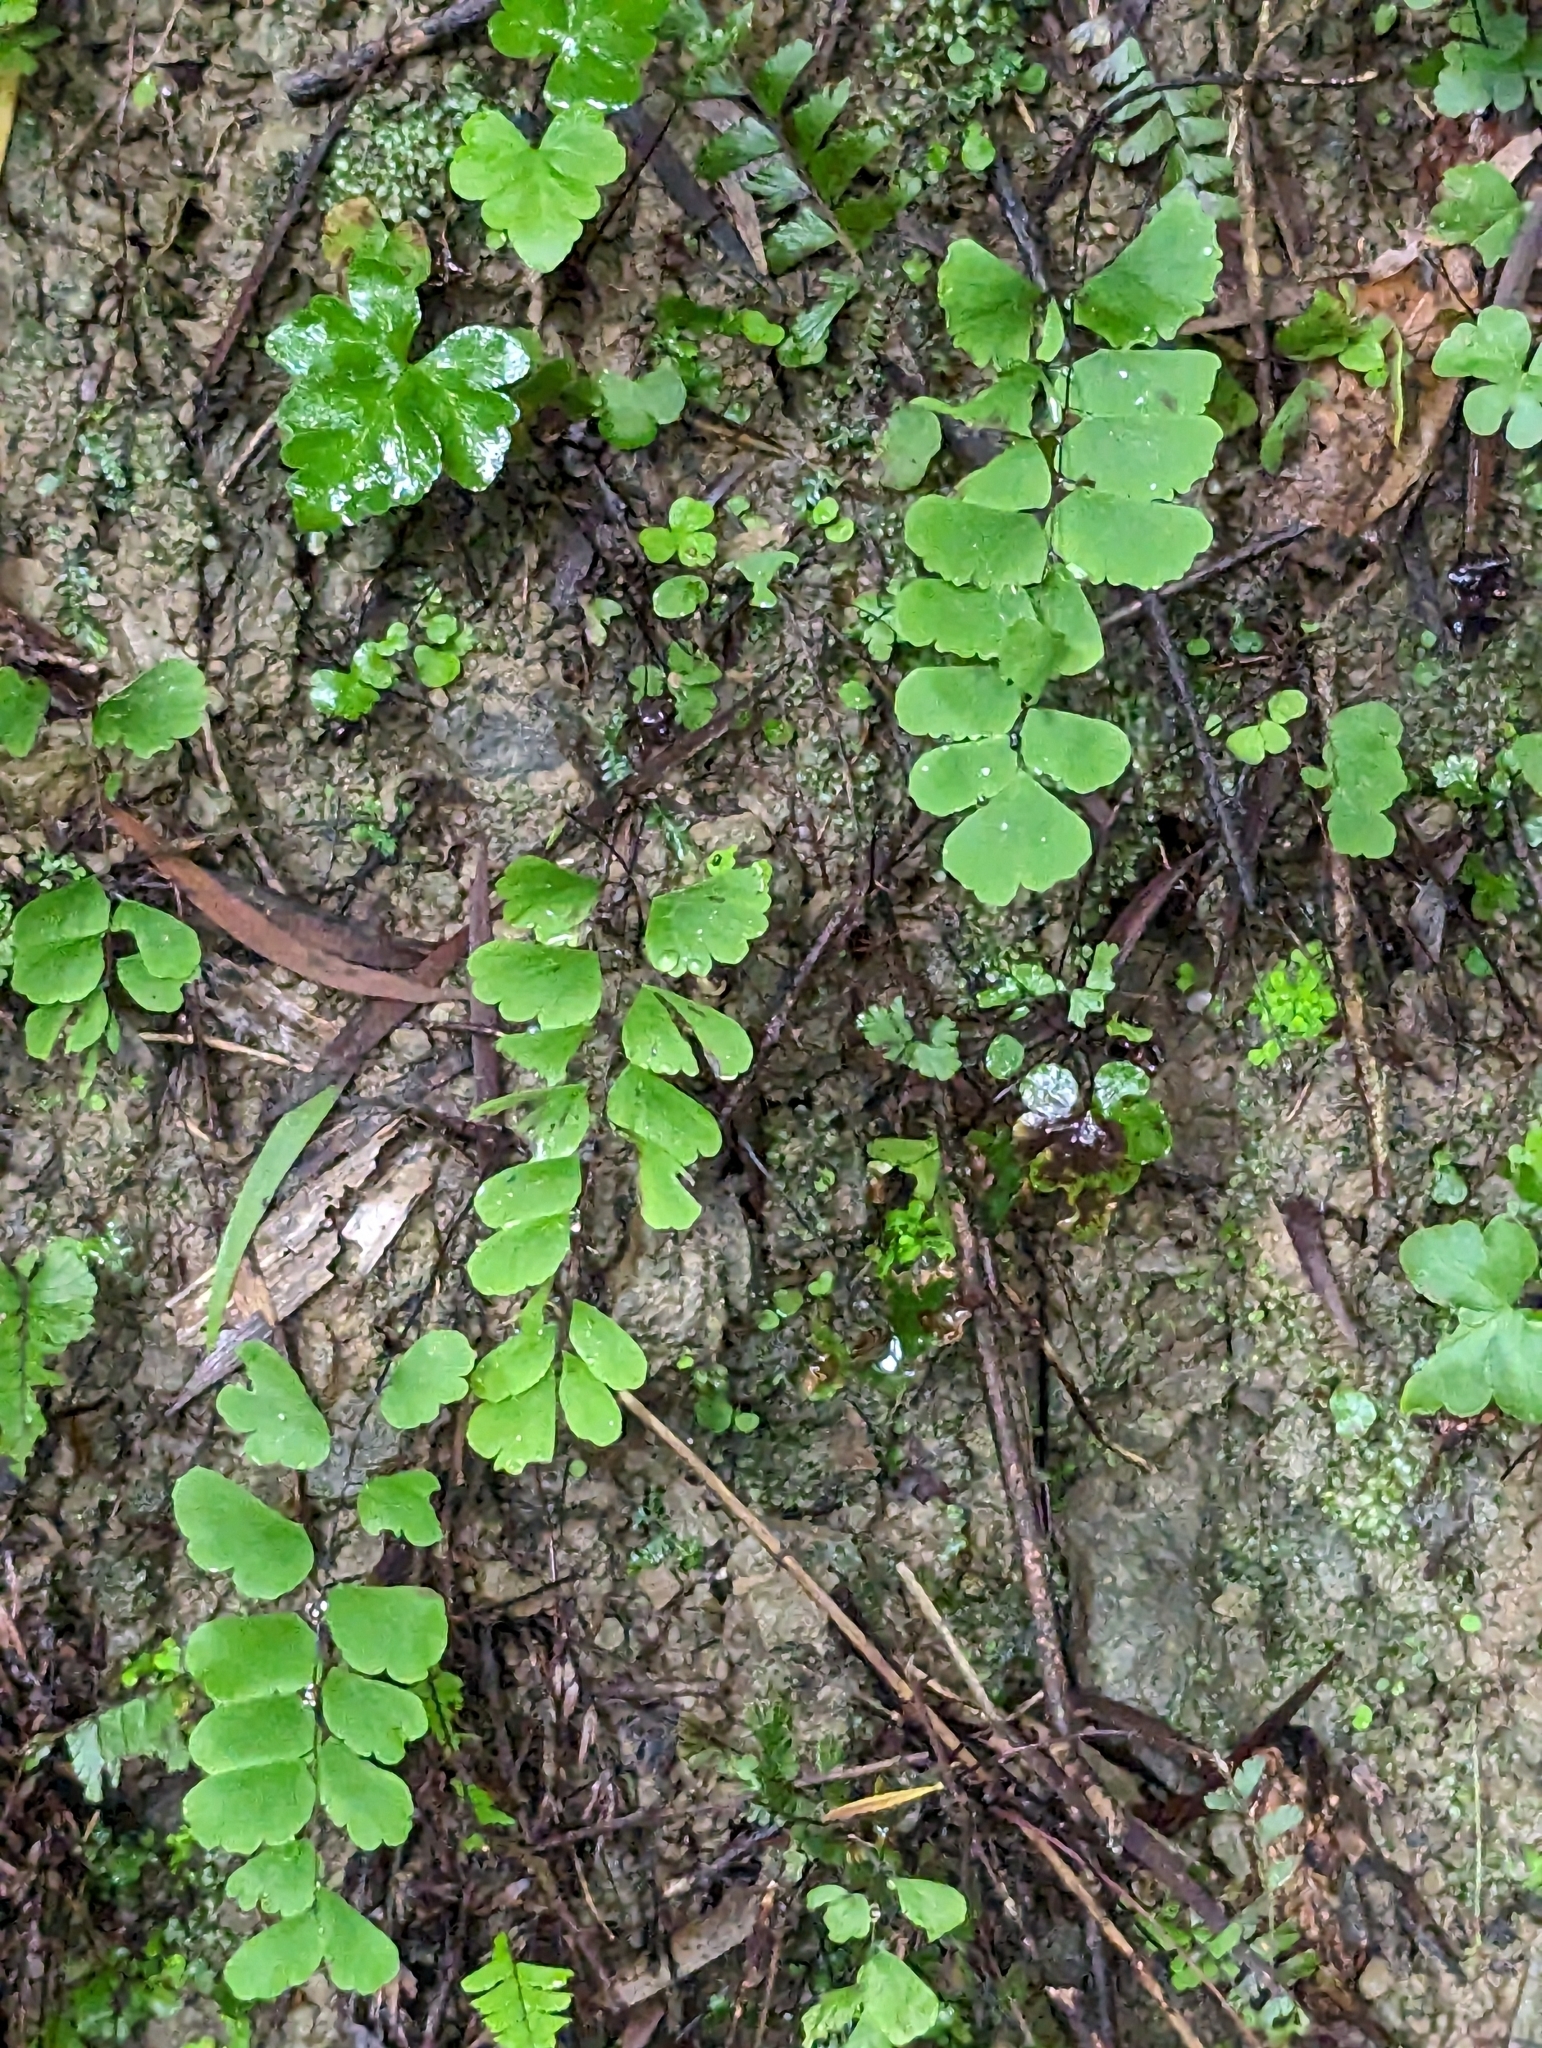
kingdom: Plantae
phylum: Tracheophyta
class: Polypodiopsida
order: Polypodiales
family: Pteridaceae
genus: Adiantum
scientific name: Adiantum philippense
